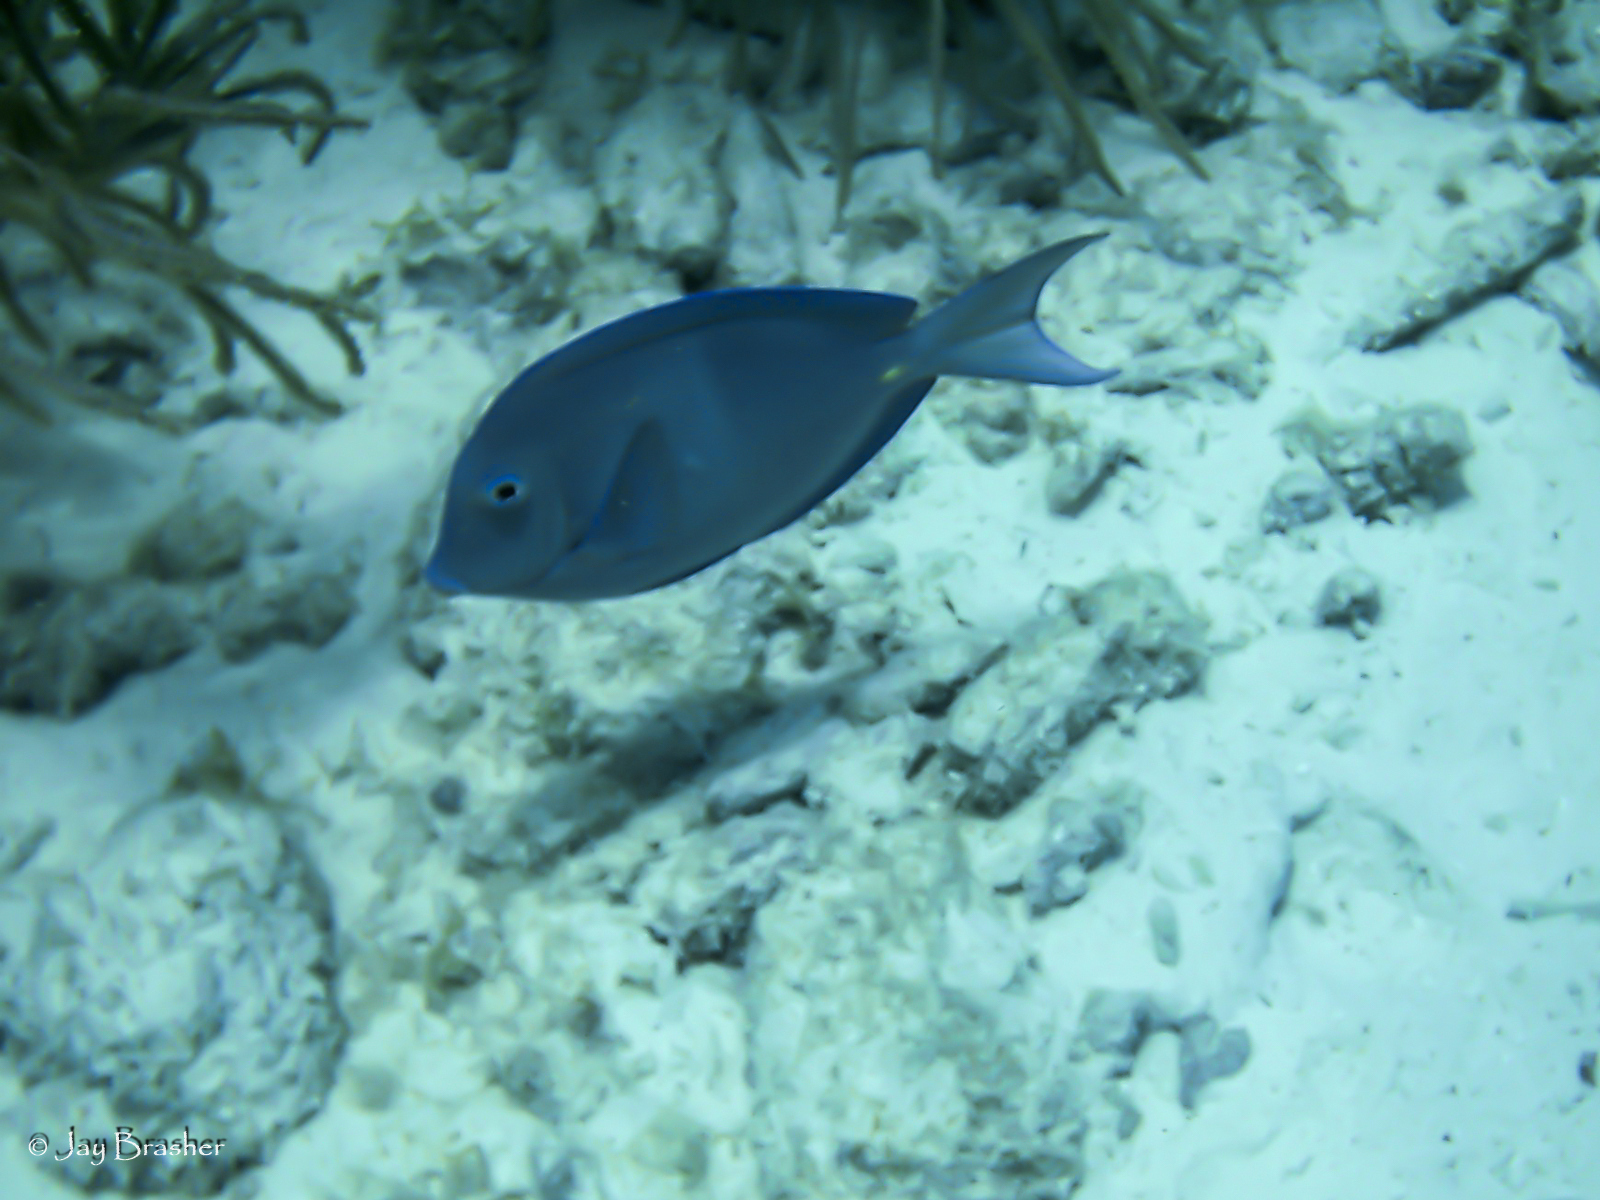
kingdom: Animalia
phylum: Chordata
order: Perciformes
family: Acanthuridae
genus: Acanthurus
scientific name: Acanthurus coeruleus
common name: Blue tang
